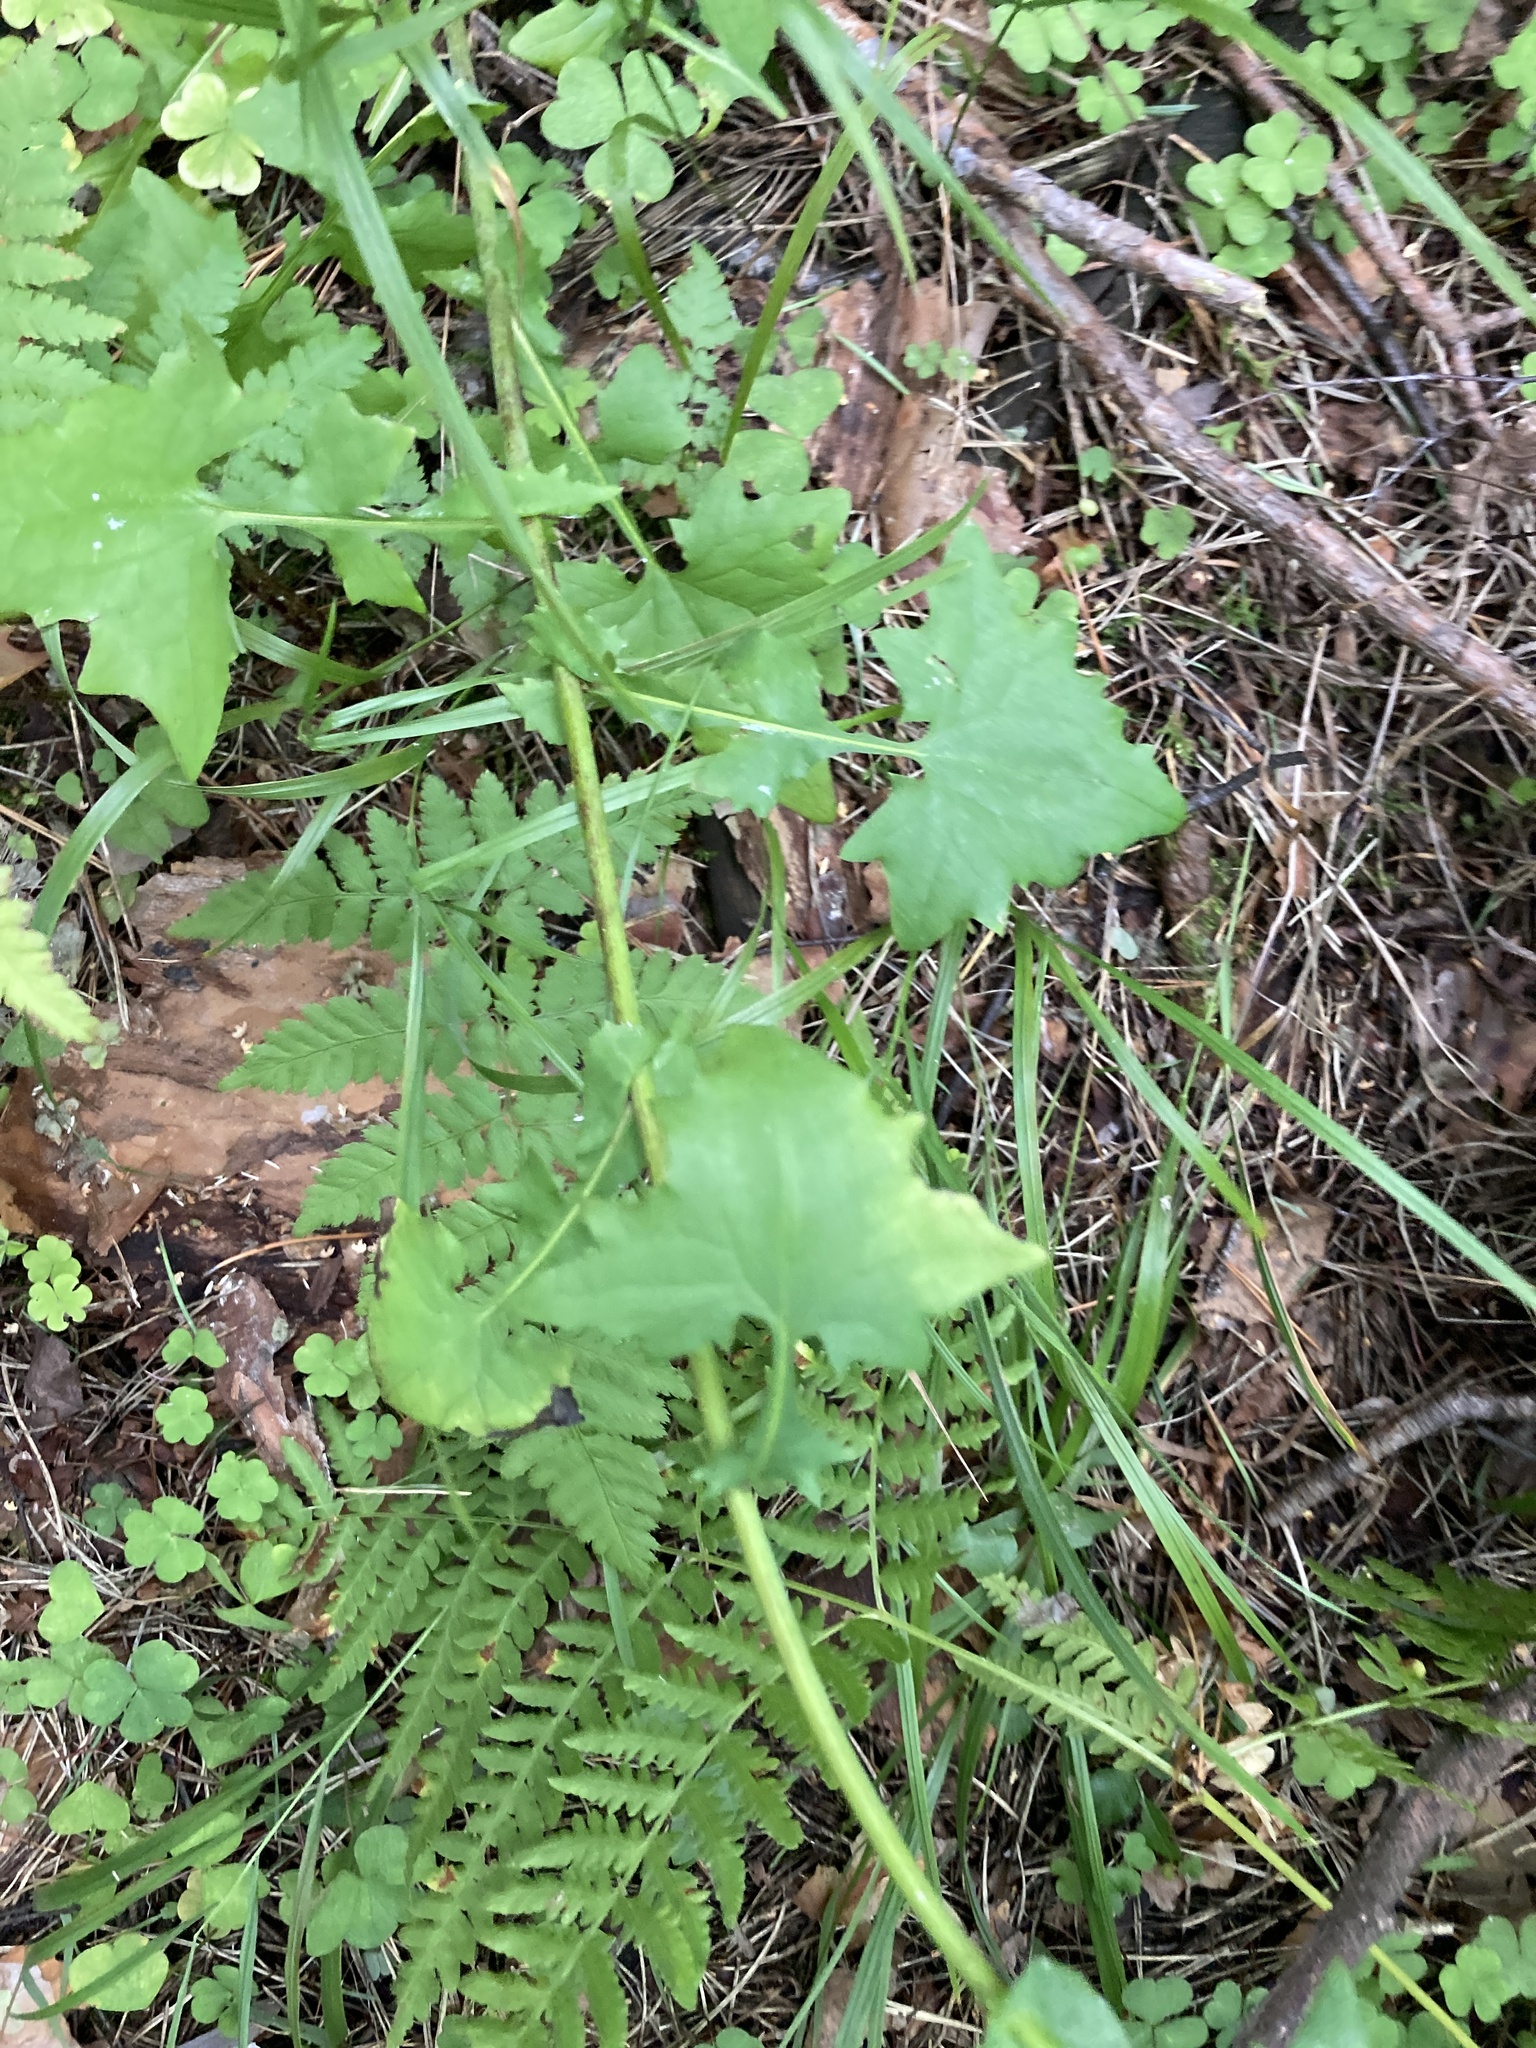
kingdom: Plantae
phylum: Tracheophyta
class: Magnoliopsida
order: Asterales
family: Asteraceae
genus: Mycelis
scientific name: Mycelis muralis
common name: Wall lettuce
